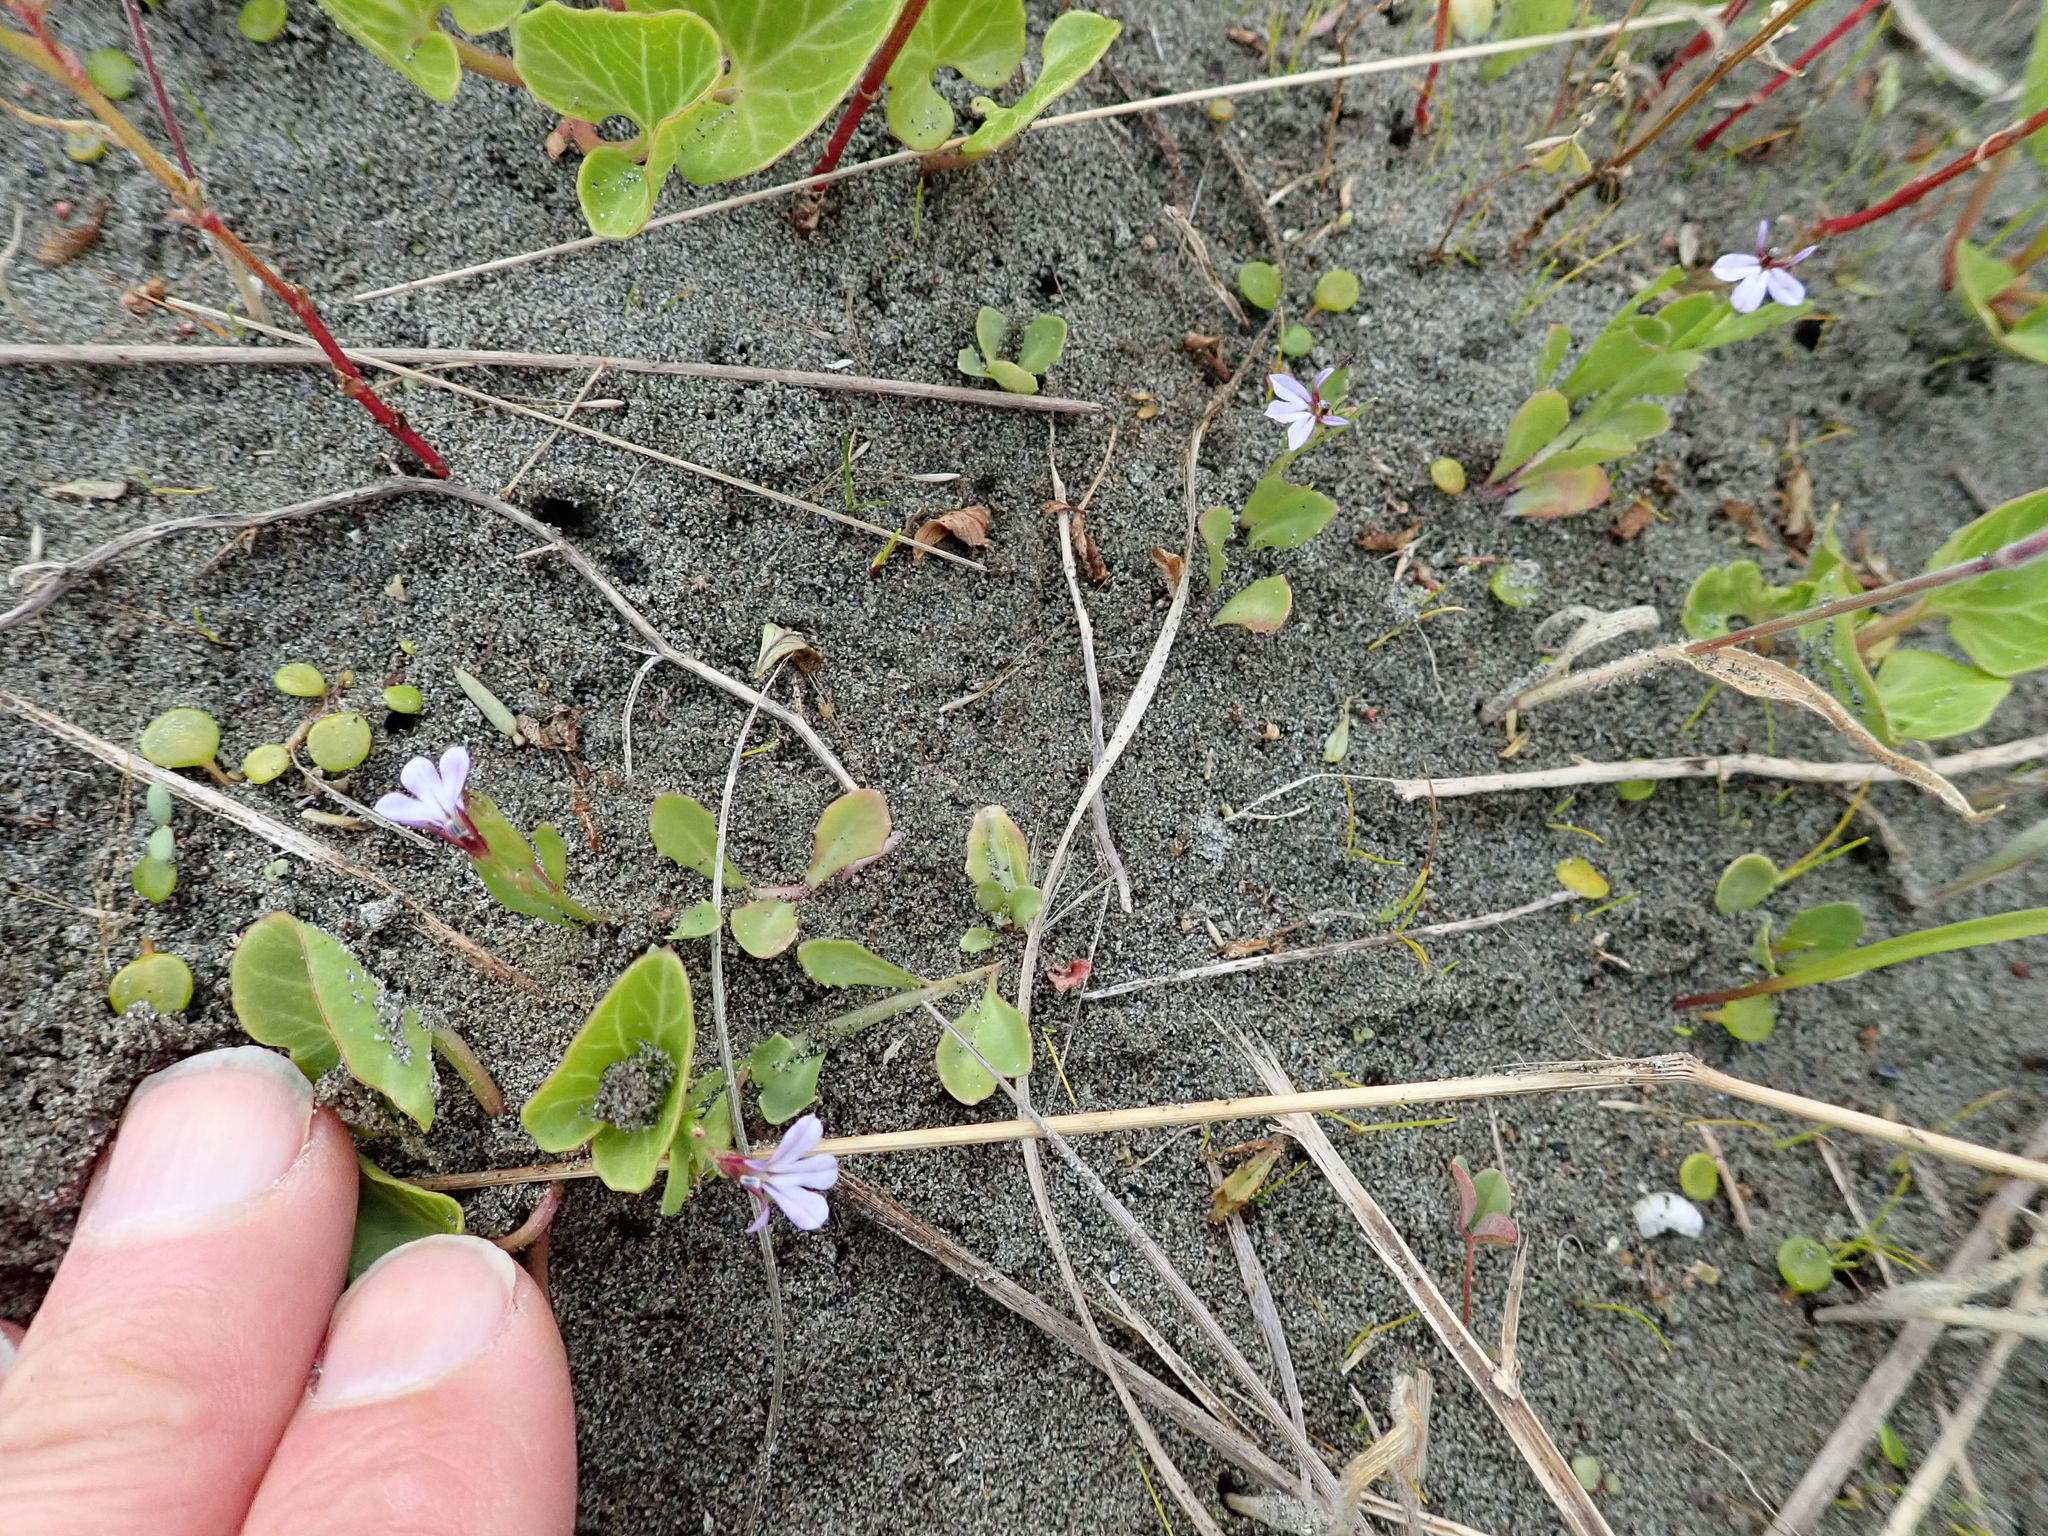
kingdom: Plantae
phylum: Tracheophyta
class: Magnoliopsida
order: Asterales
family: Campanulaceae
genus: Lobelia
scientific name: Lobelia anceps
